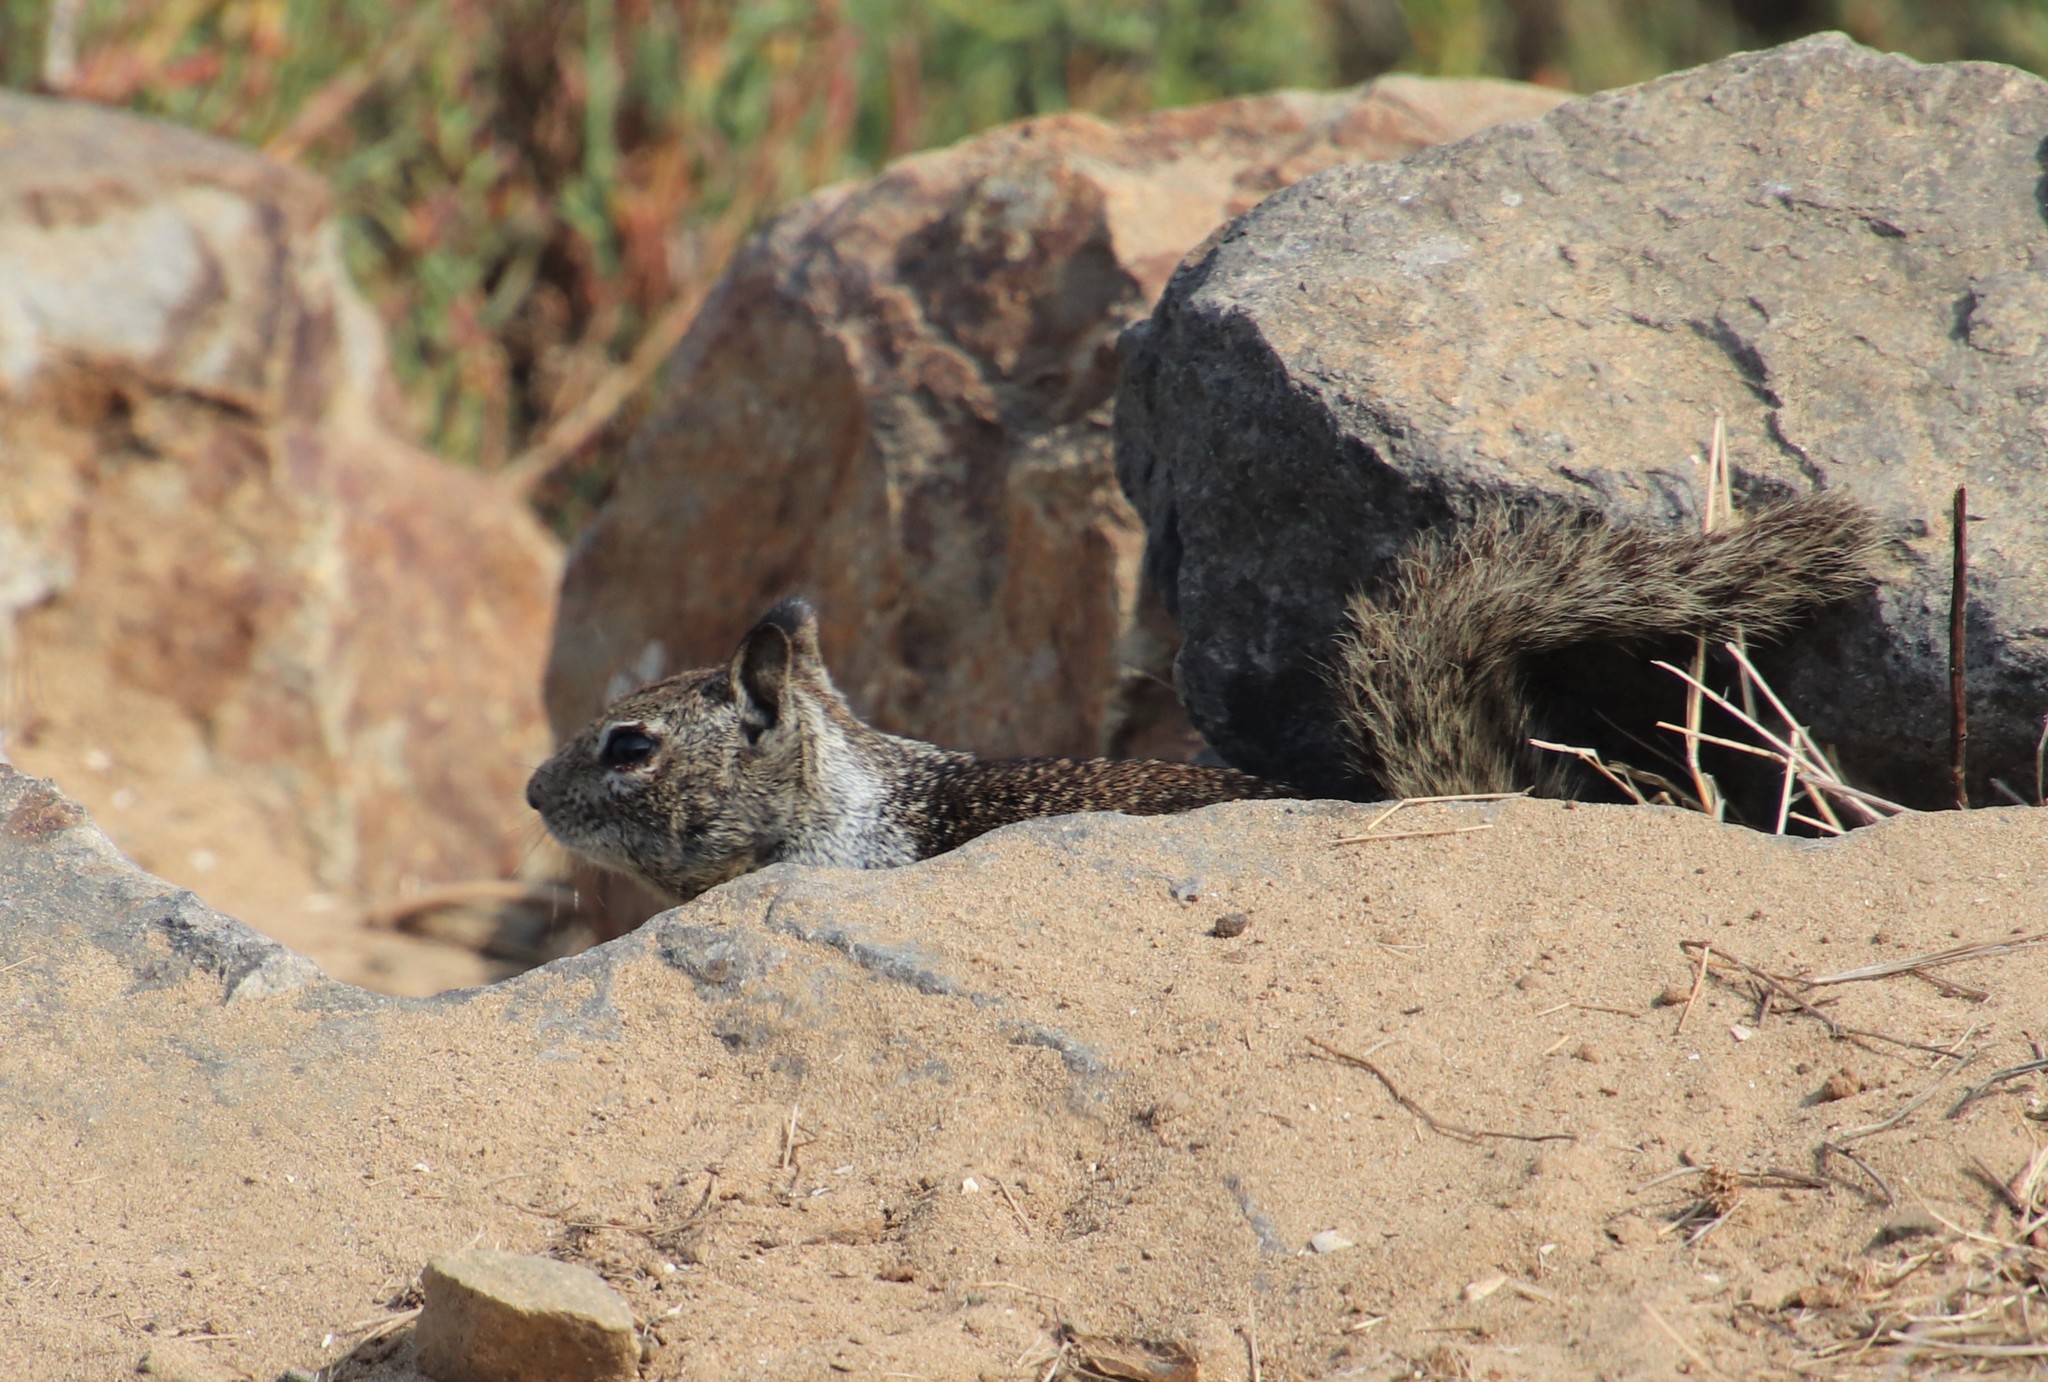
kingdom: Animalia
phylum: Chordata
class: Mammalia
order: Rodentia
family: Sciuridae
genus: Otospermophilus
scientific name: Otospermophilus beecheyi
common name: California ground squirrel
